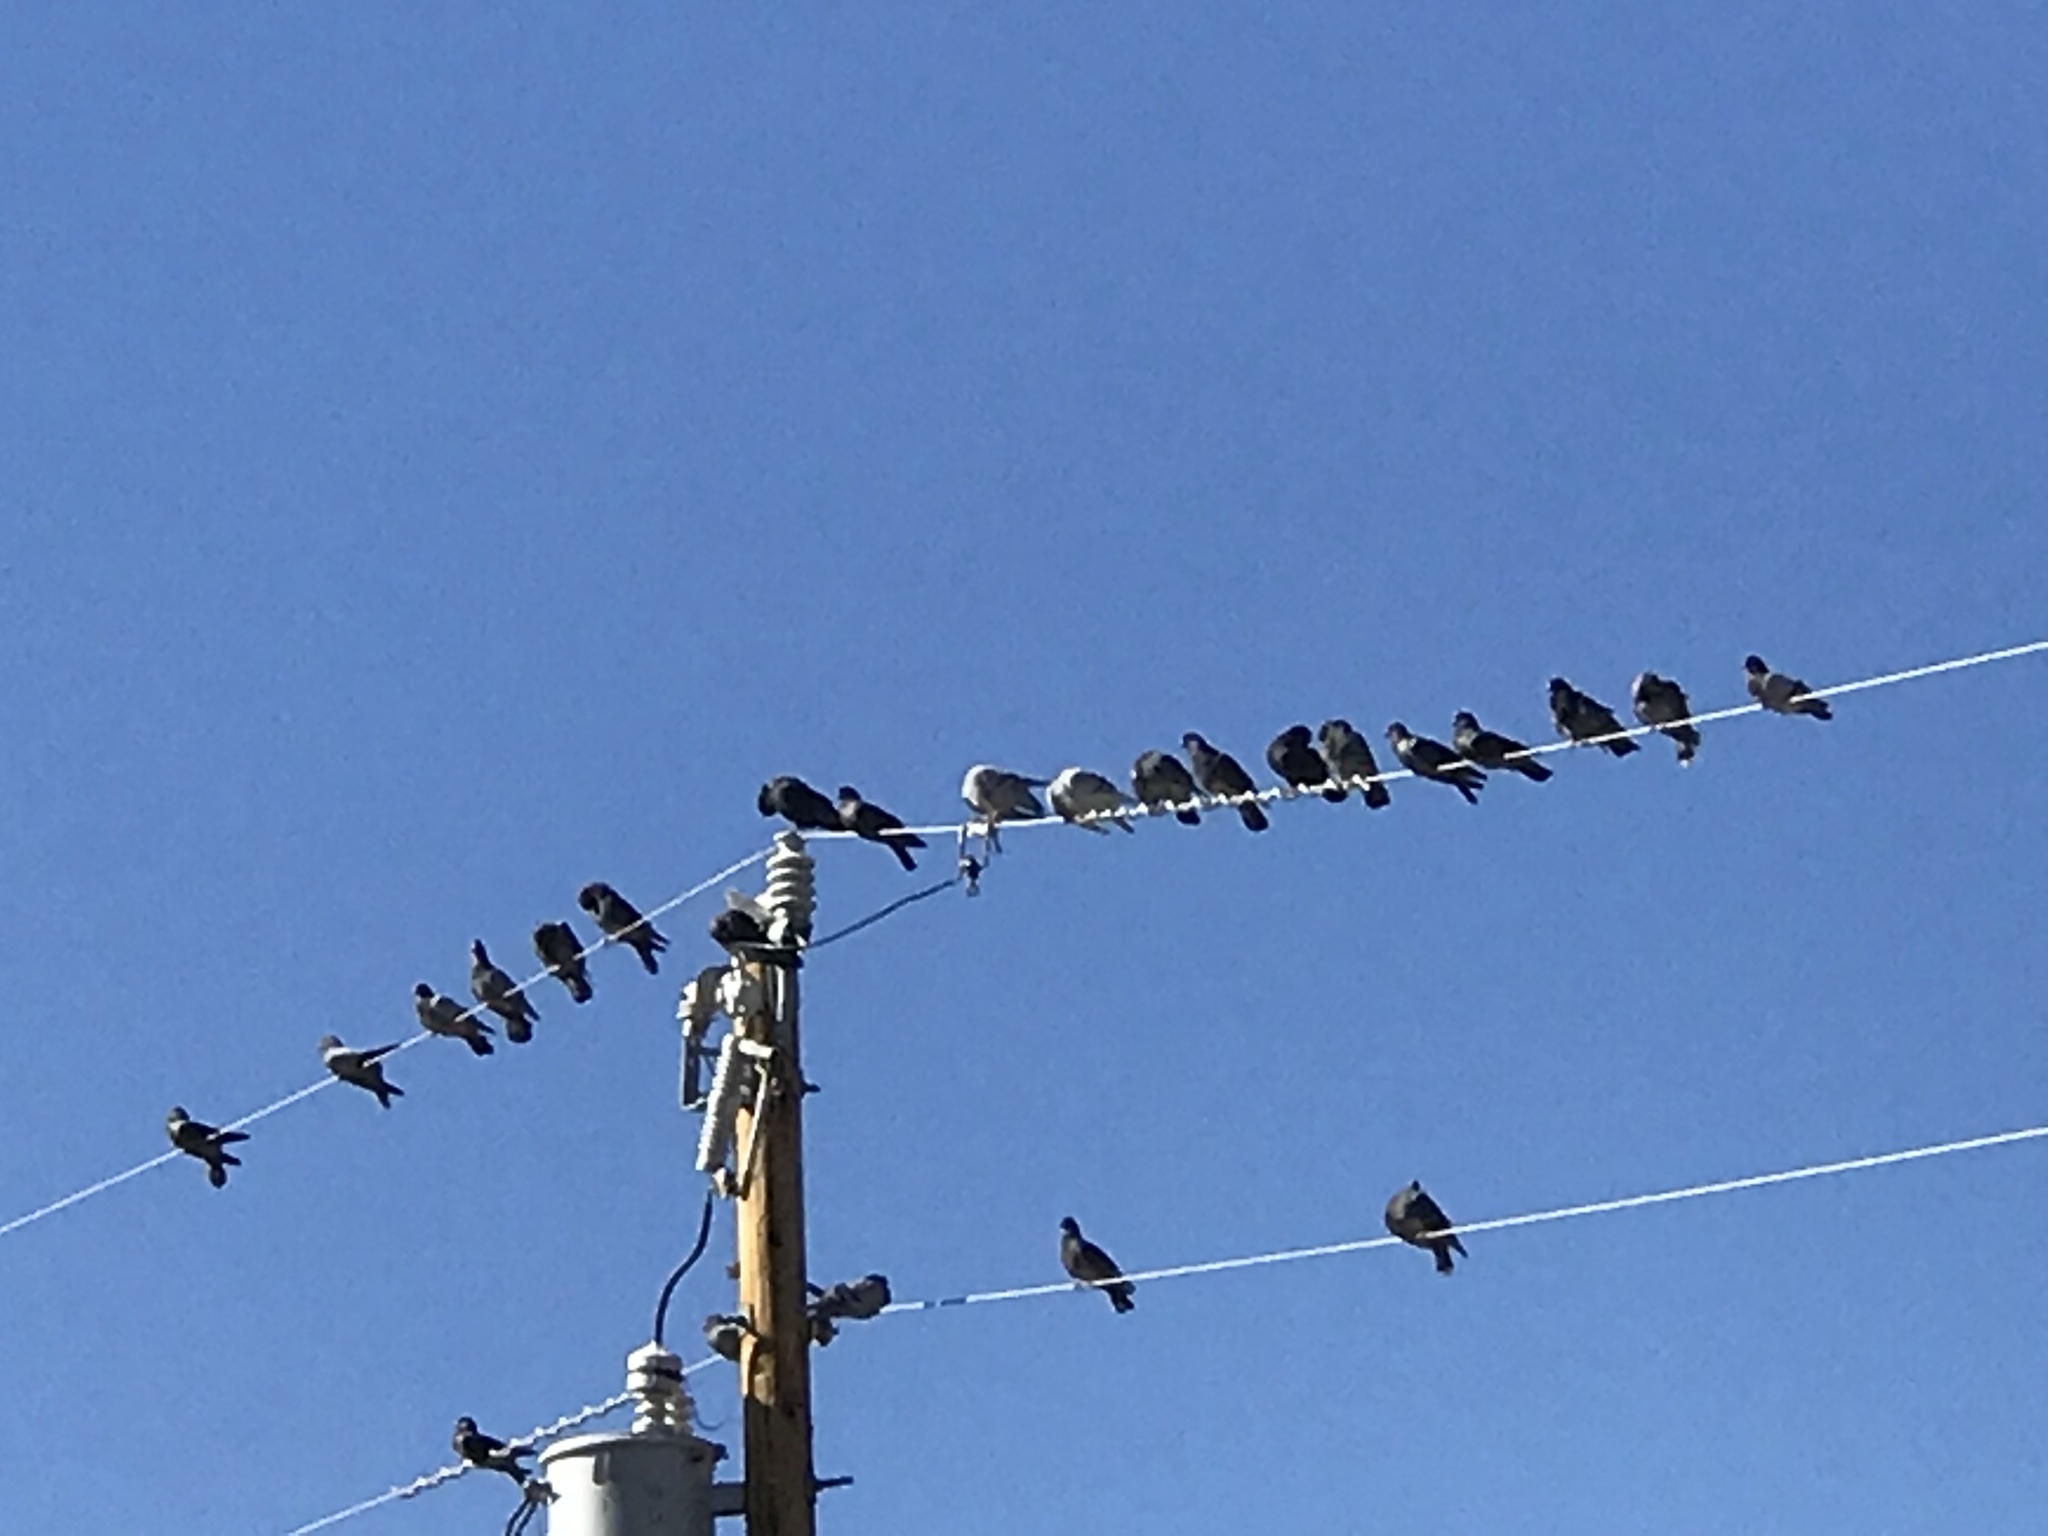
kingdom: Animalia
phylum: Chordata
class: Aves
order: Columbiformes
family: Columbidae
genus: Columba
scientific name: Columba livia
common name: Rock pigeon
